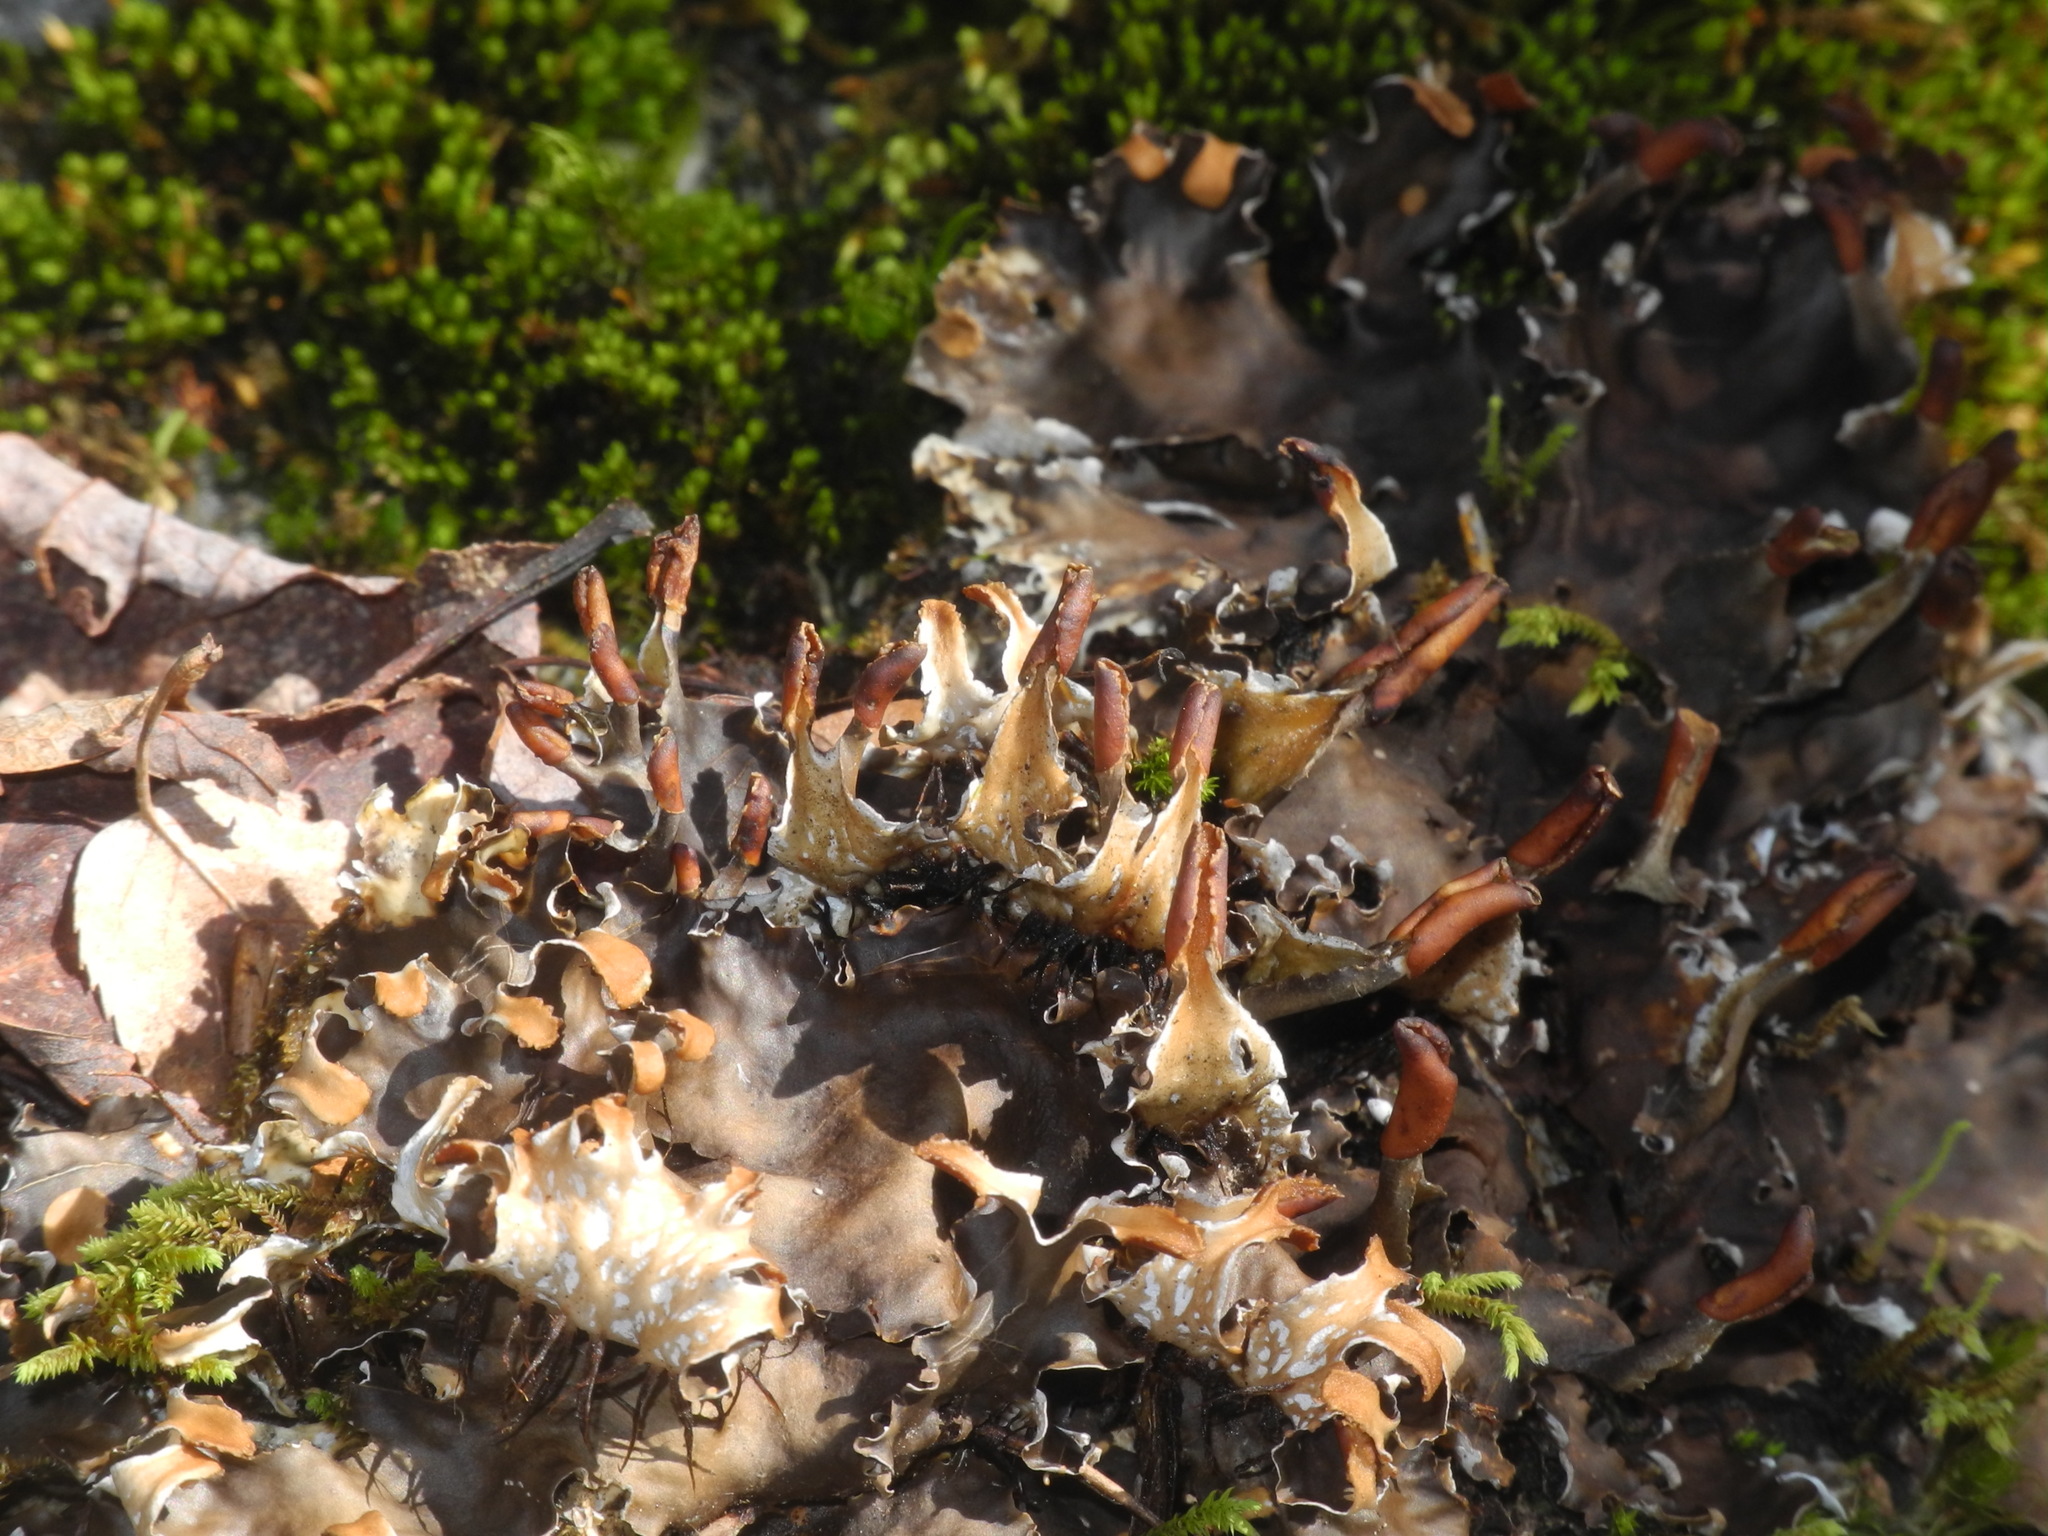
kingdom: Fungi
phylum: Ascomycota
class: Lecanoromycetes
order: Peltigerales
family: Peltigeraceae
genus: Peltigera
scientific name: Peltigera polydactylon
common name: Many-fruited pelt lichen
